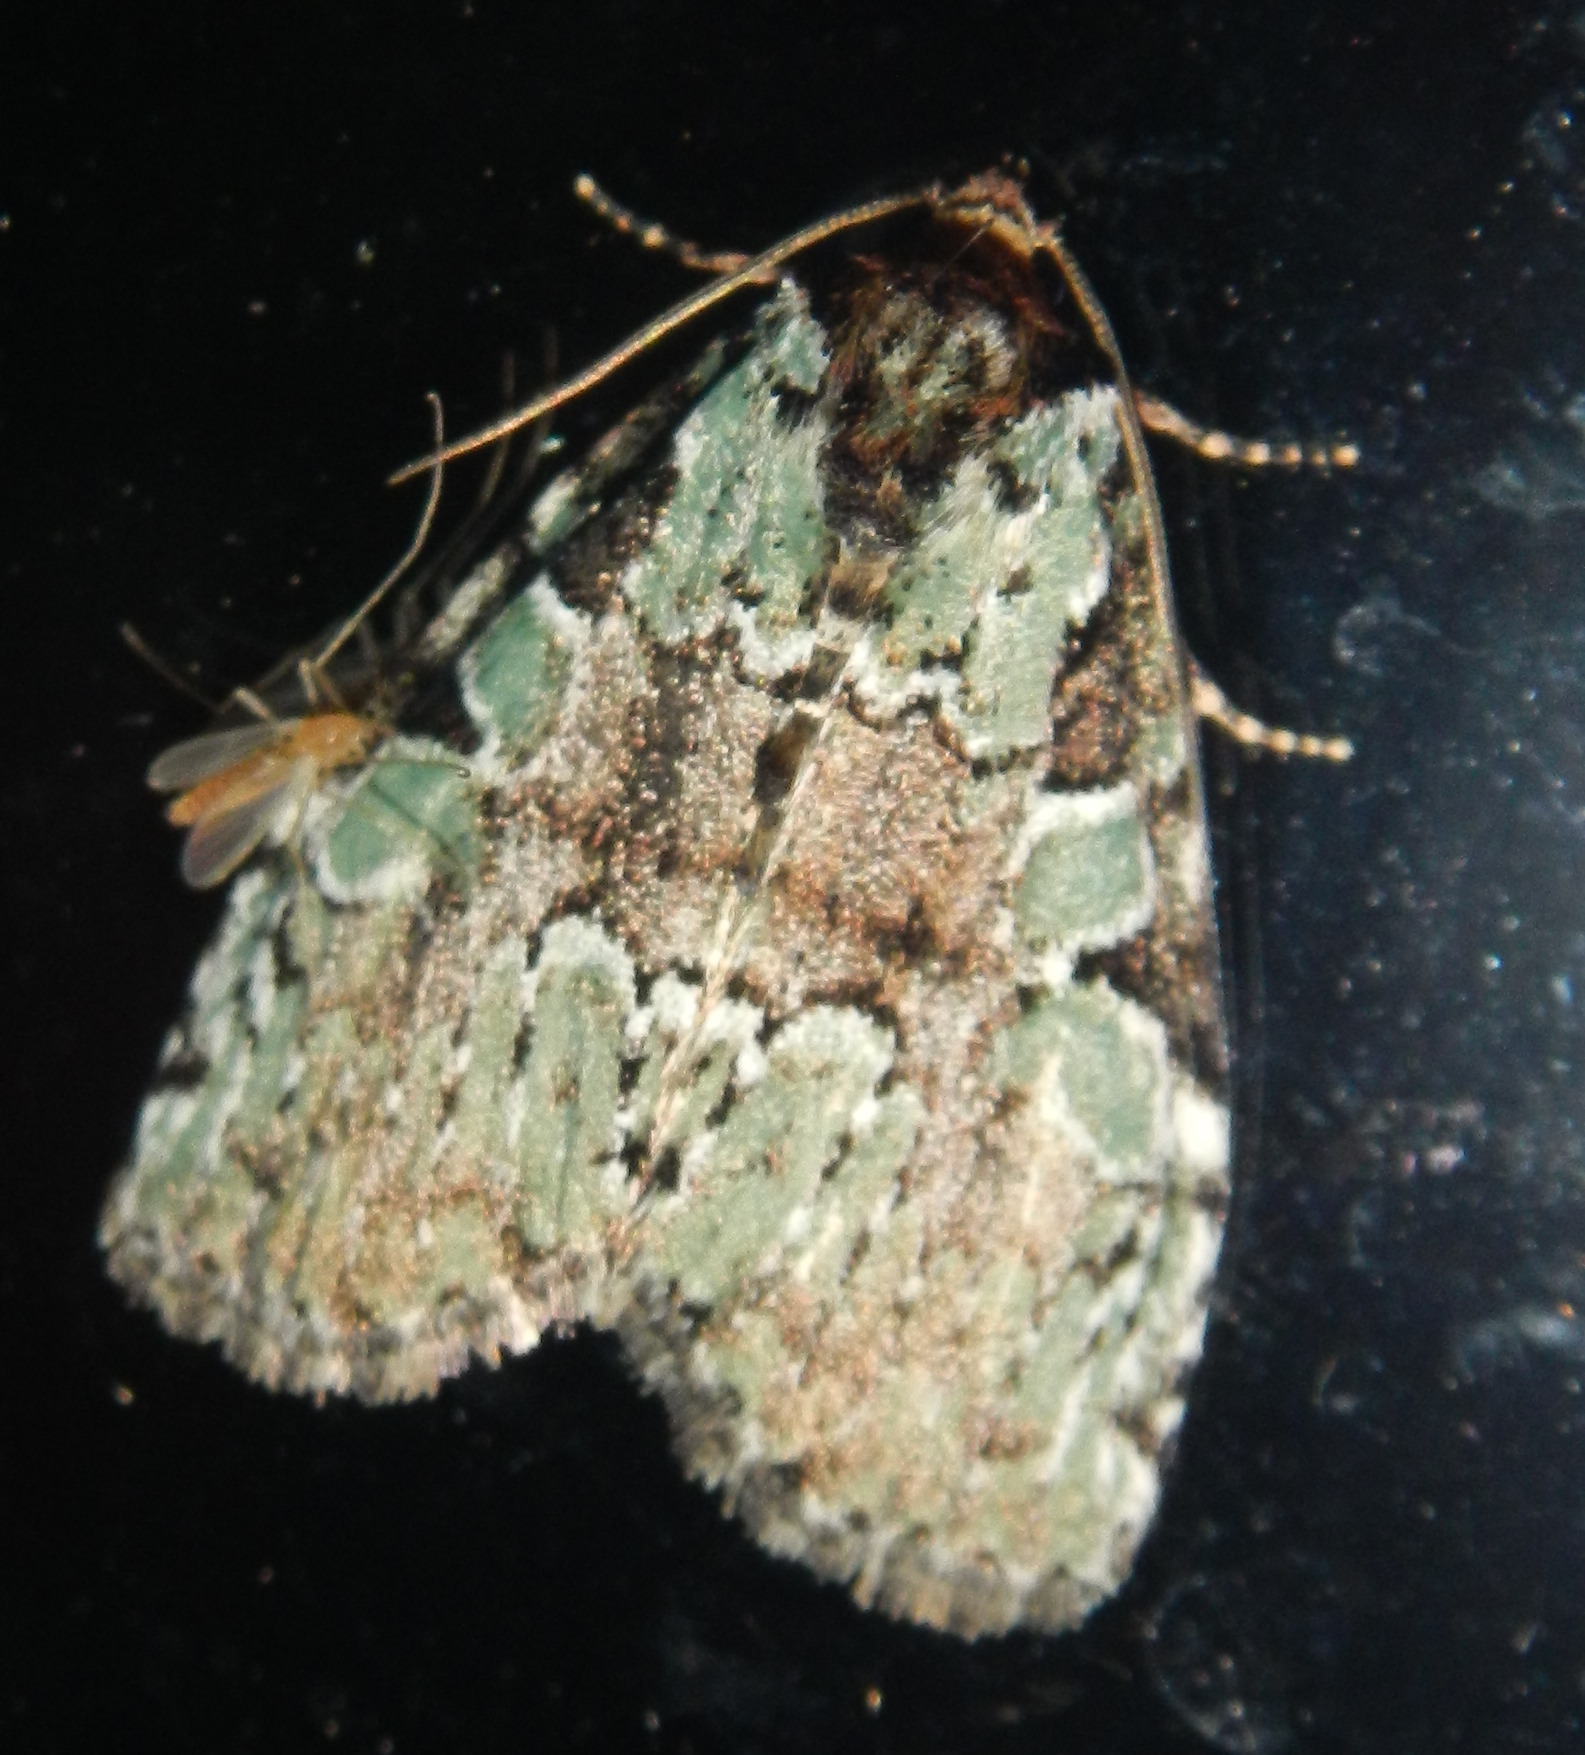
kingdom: Animalia
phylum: Arthropoda
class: Insecta
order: Lepidoptera
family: Noctuidae
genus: Leuconycta
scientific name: Leuconycta lepidula
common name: Marbled-green leuconycta moth
